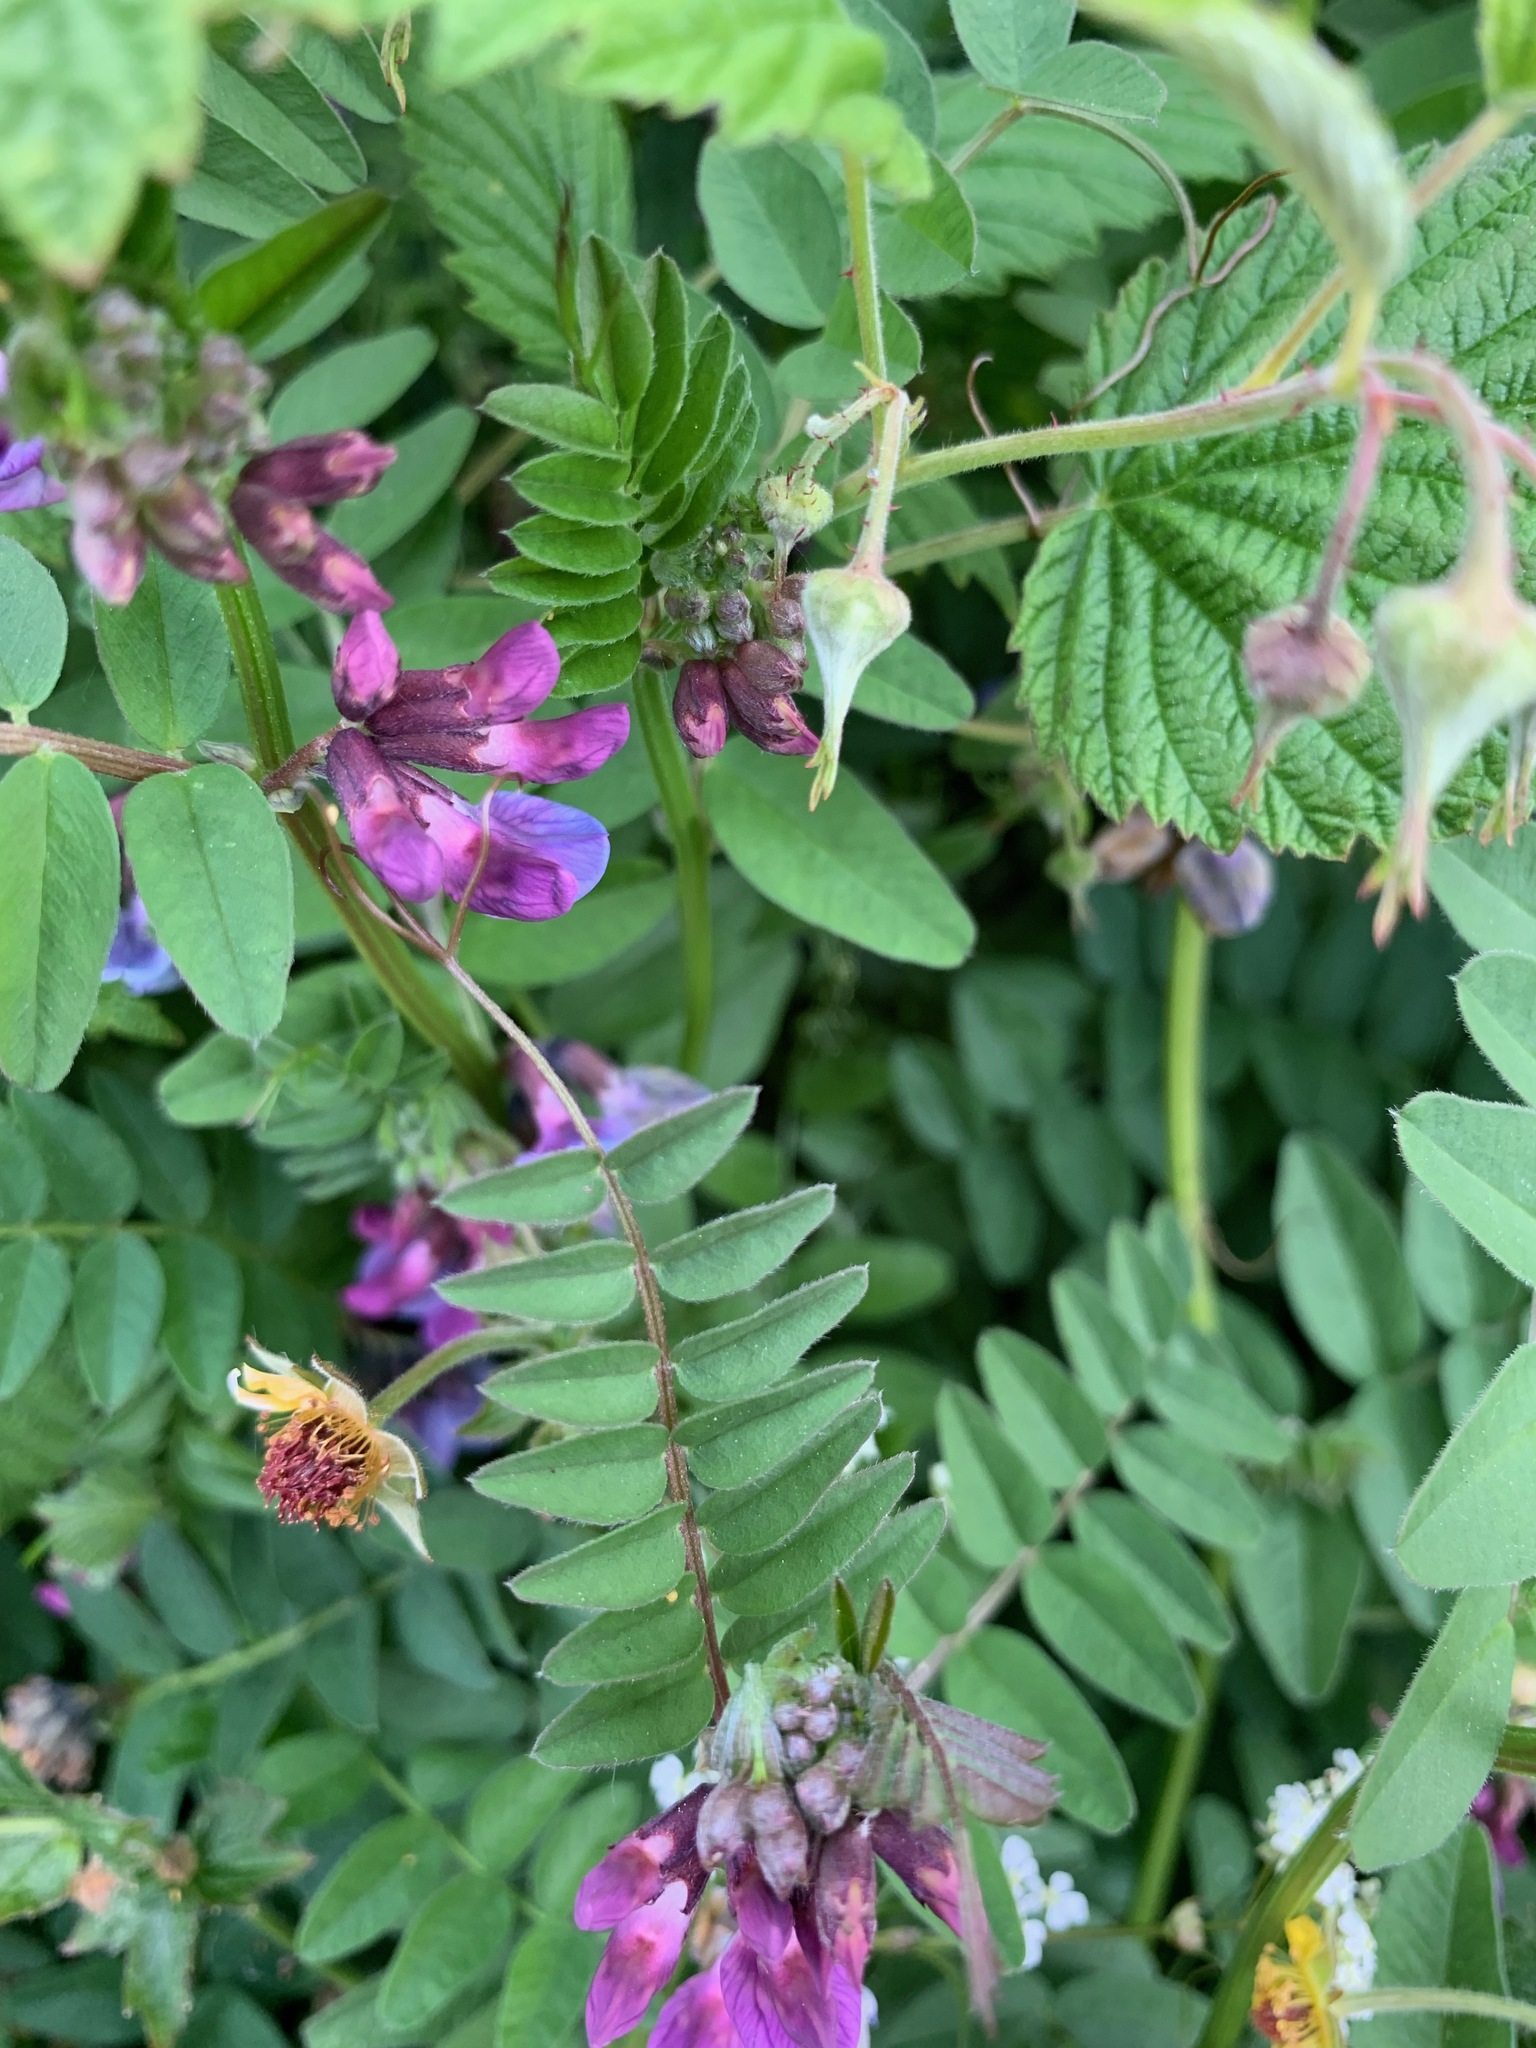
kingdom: Plantae
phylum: Tracheophyta
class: Magnoliopsida
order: Fabales
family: Fabaceae
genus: Vicia
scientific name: Vicia sepium
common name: Bush vetch
